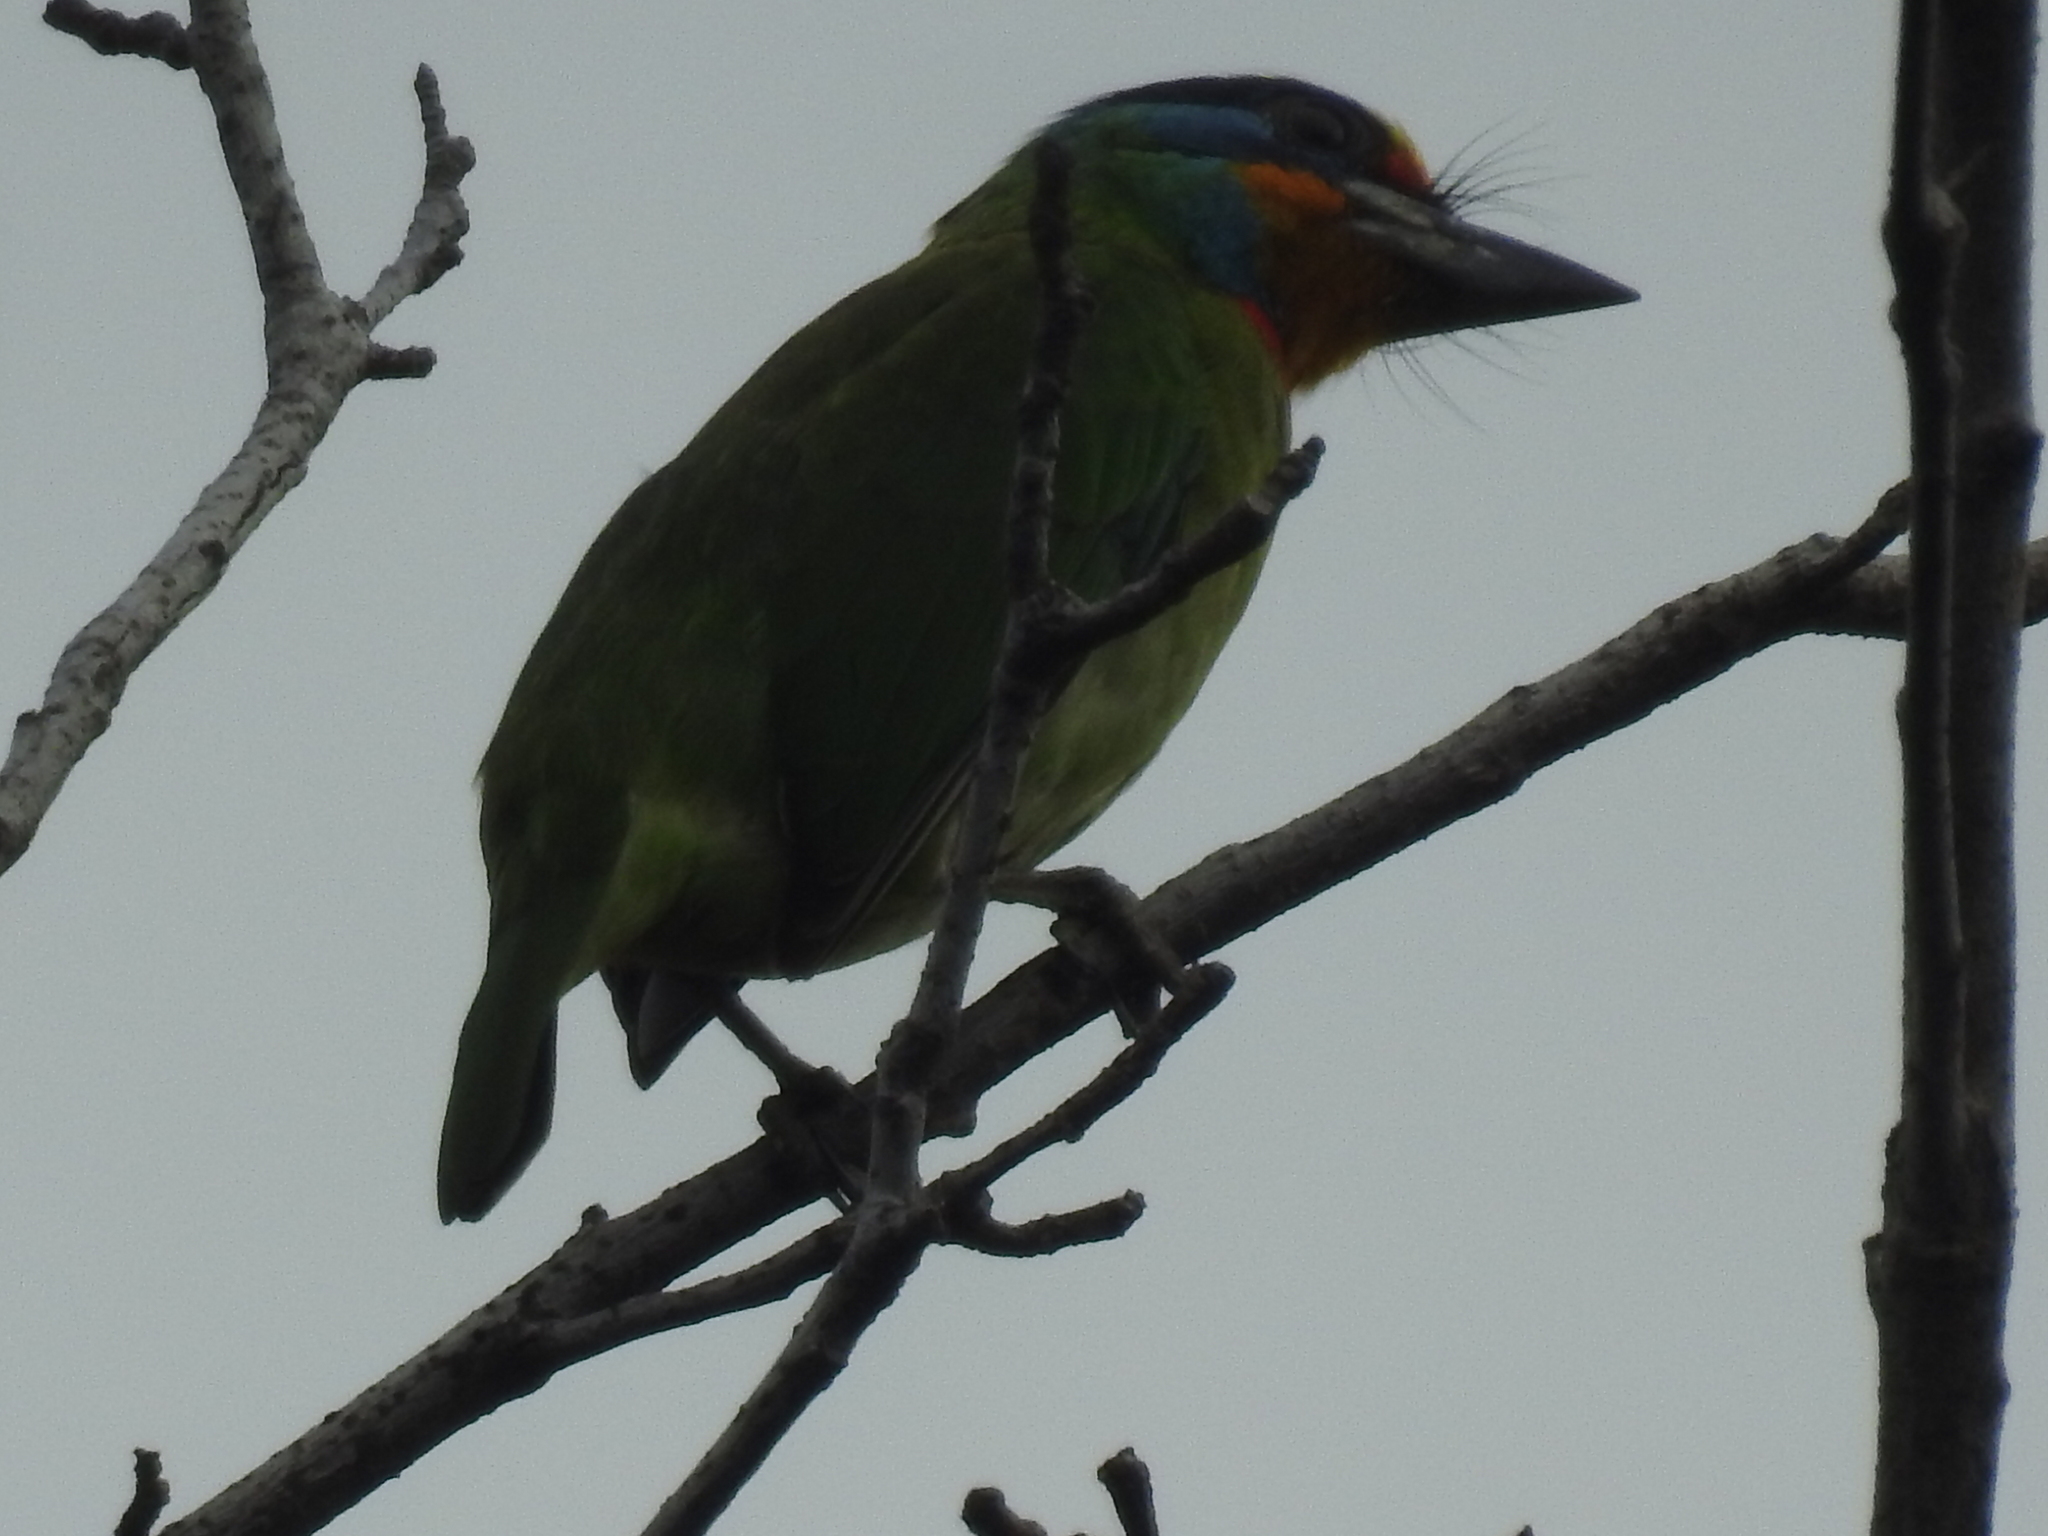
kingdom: Animalia
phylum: Chordata
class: Aves
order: Piciformes
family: Megalaimidae
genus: Psilopogon
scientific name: Psilopogon nuchalis
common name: Taiwan barbet
